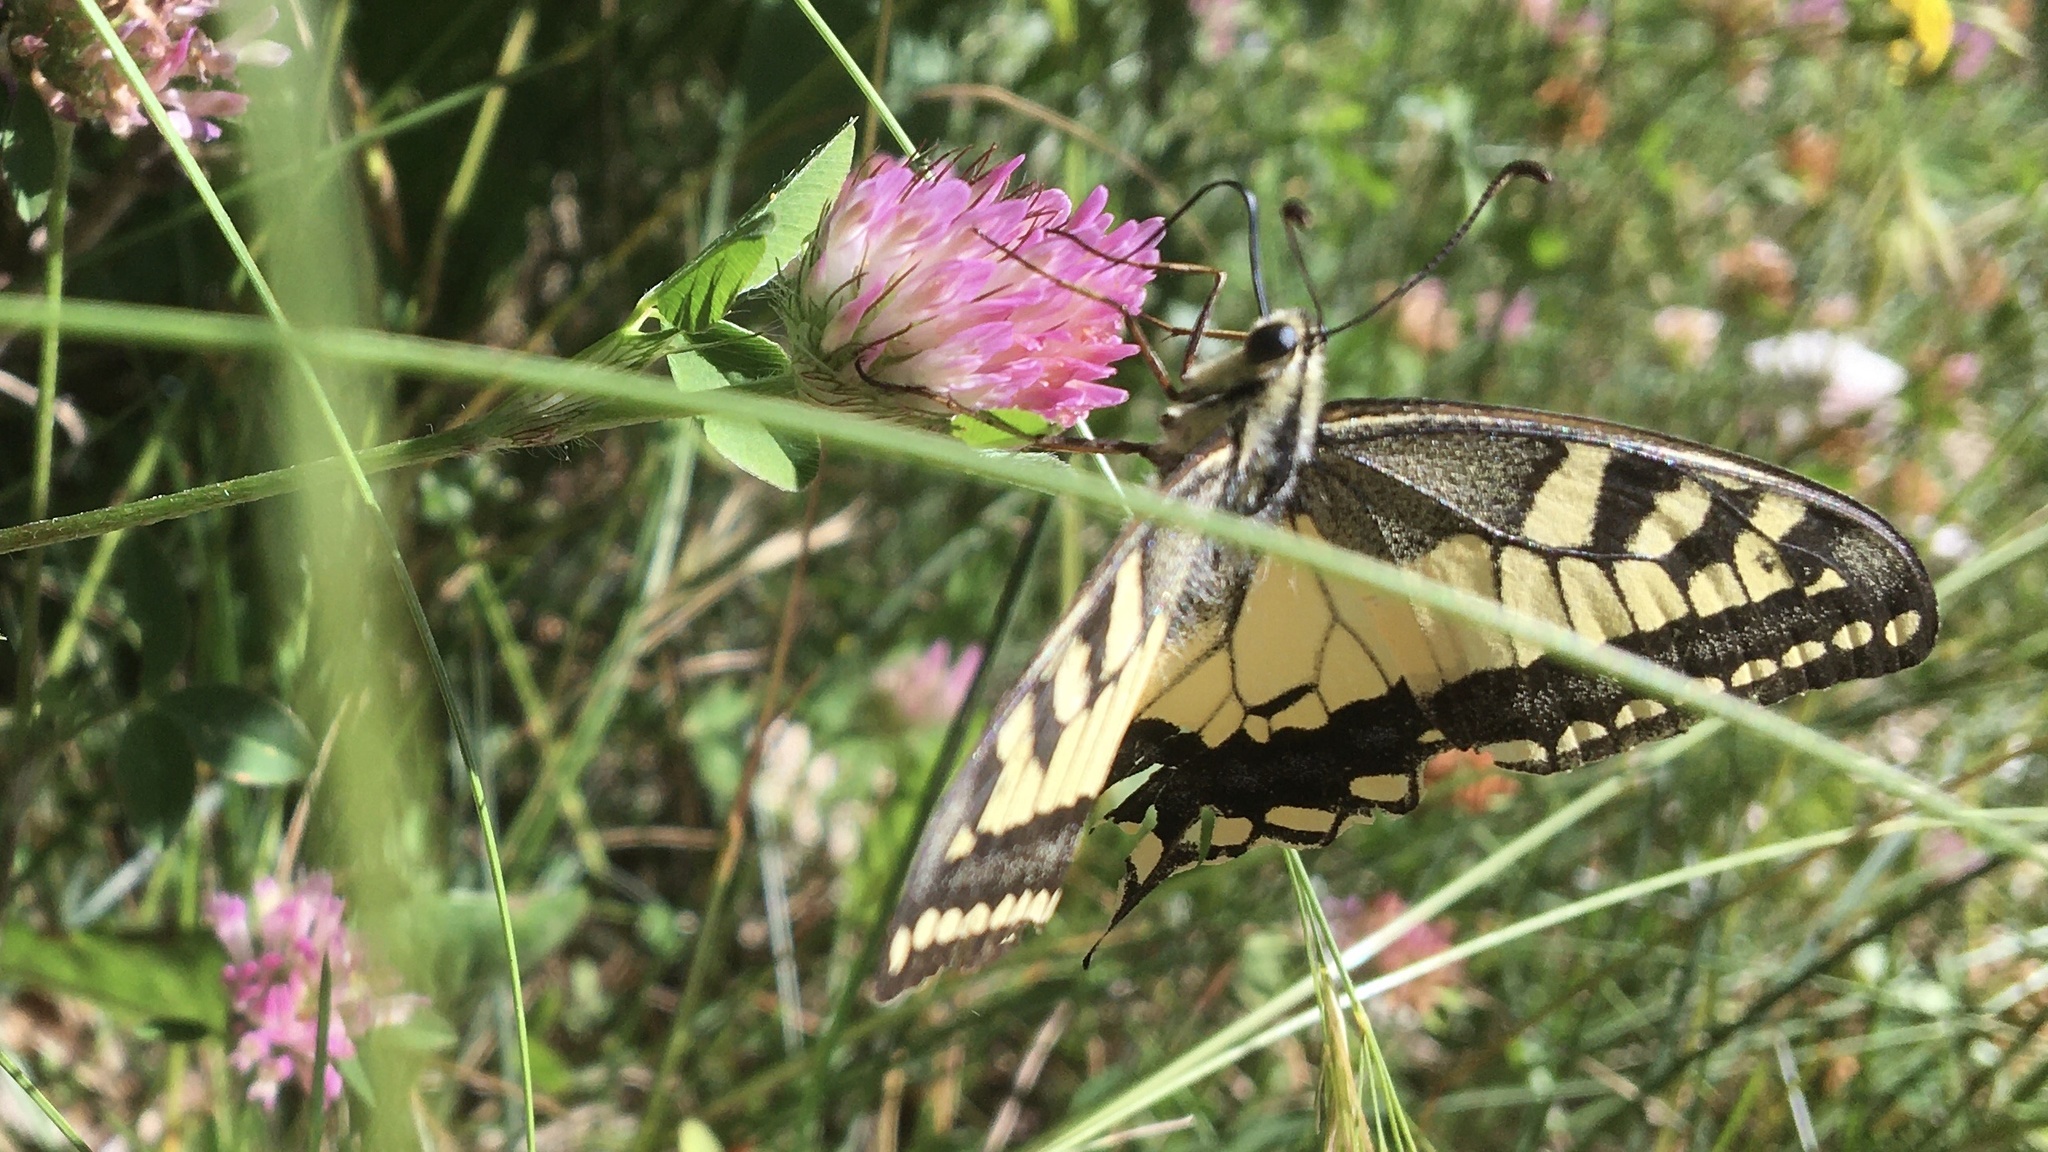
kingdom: Animalia
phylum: Arthropoda
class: Insecta
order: Lepidoptera
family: Papilionidae
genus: Papilio
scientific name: Papilio machaon
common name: Swallowtail
